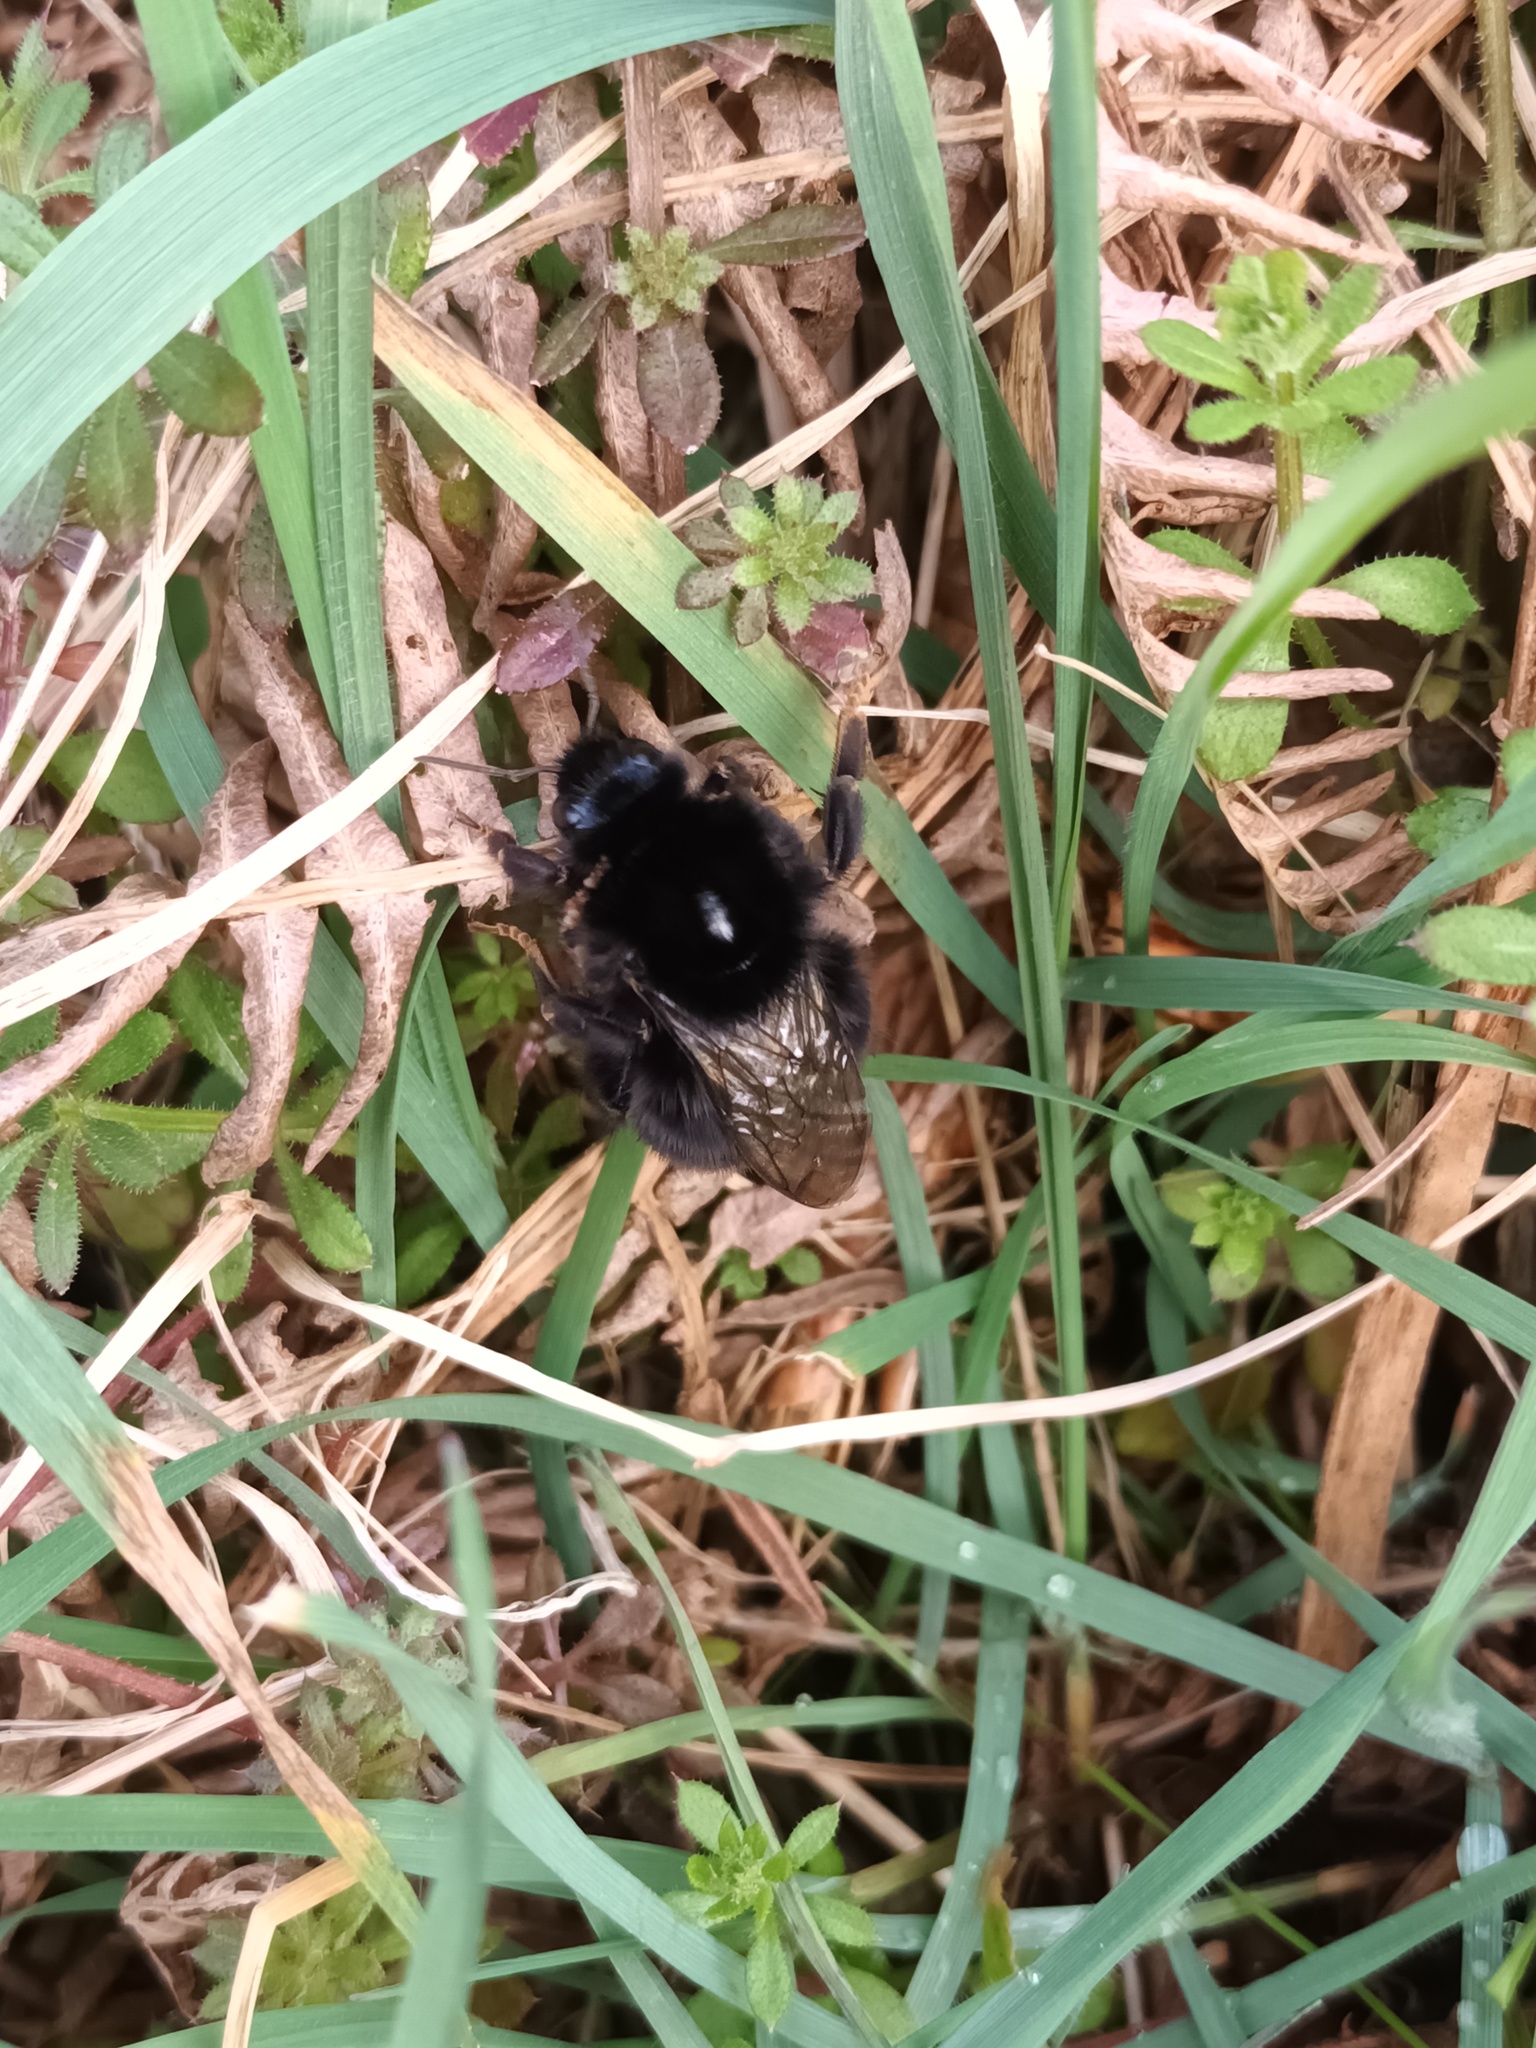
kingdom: Animalia
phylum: Arthropoda
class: Insecta
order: Hymenoptera
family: Apidae
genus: Bombus
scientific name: Bombus lapidarius
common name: Large red-tailed humble-bee
